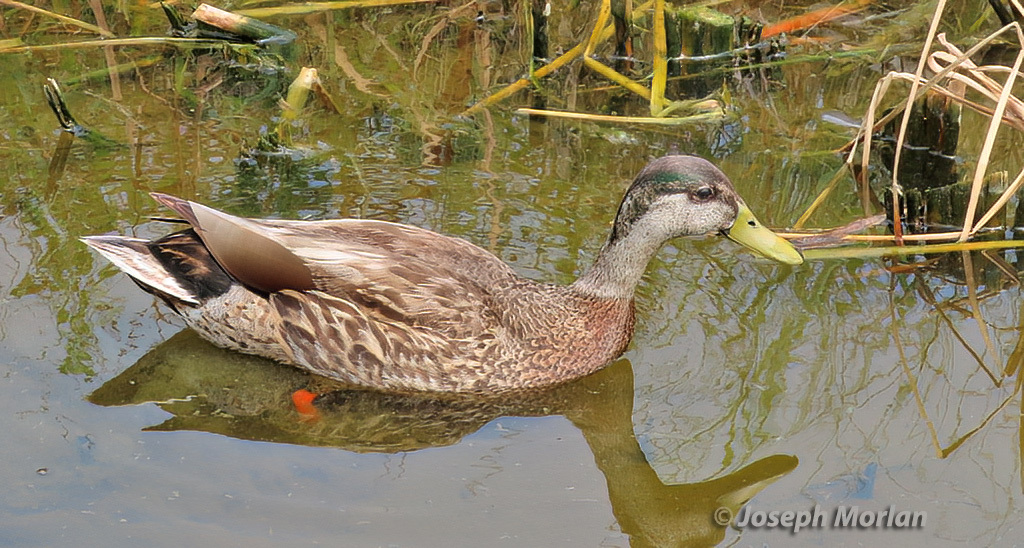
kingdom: Animalia
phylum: Chordata
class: Aves
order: Anseriformes
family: Anatidae
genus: Anas
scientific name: Anas
